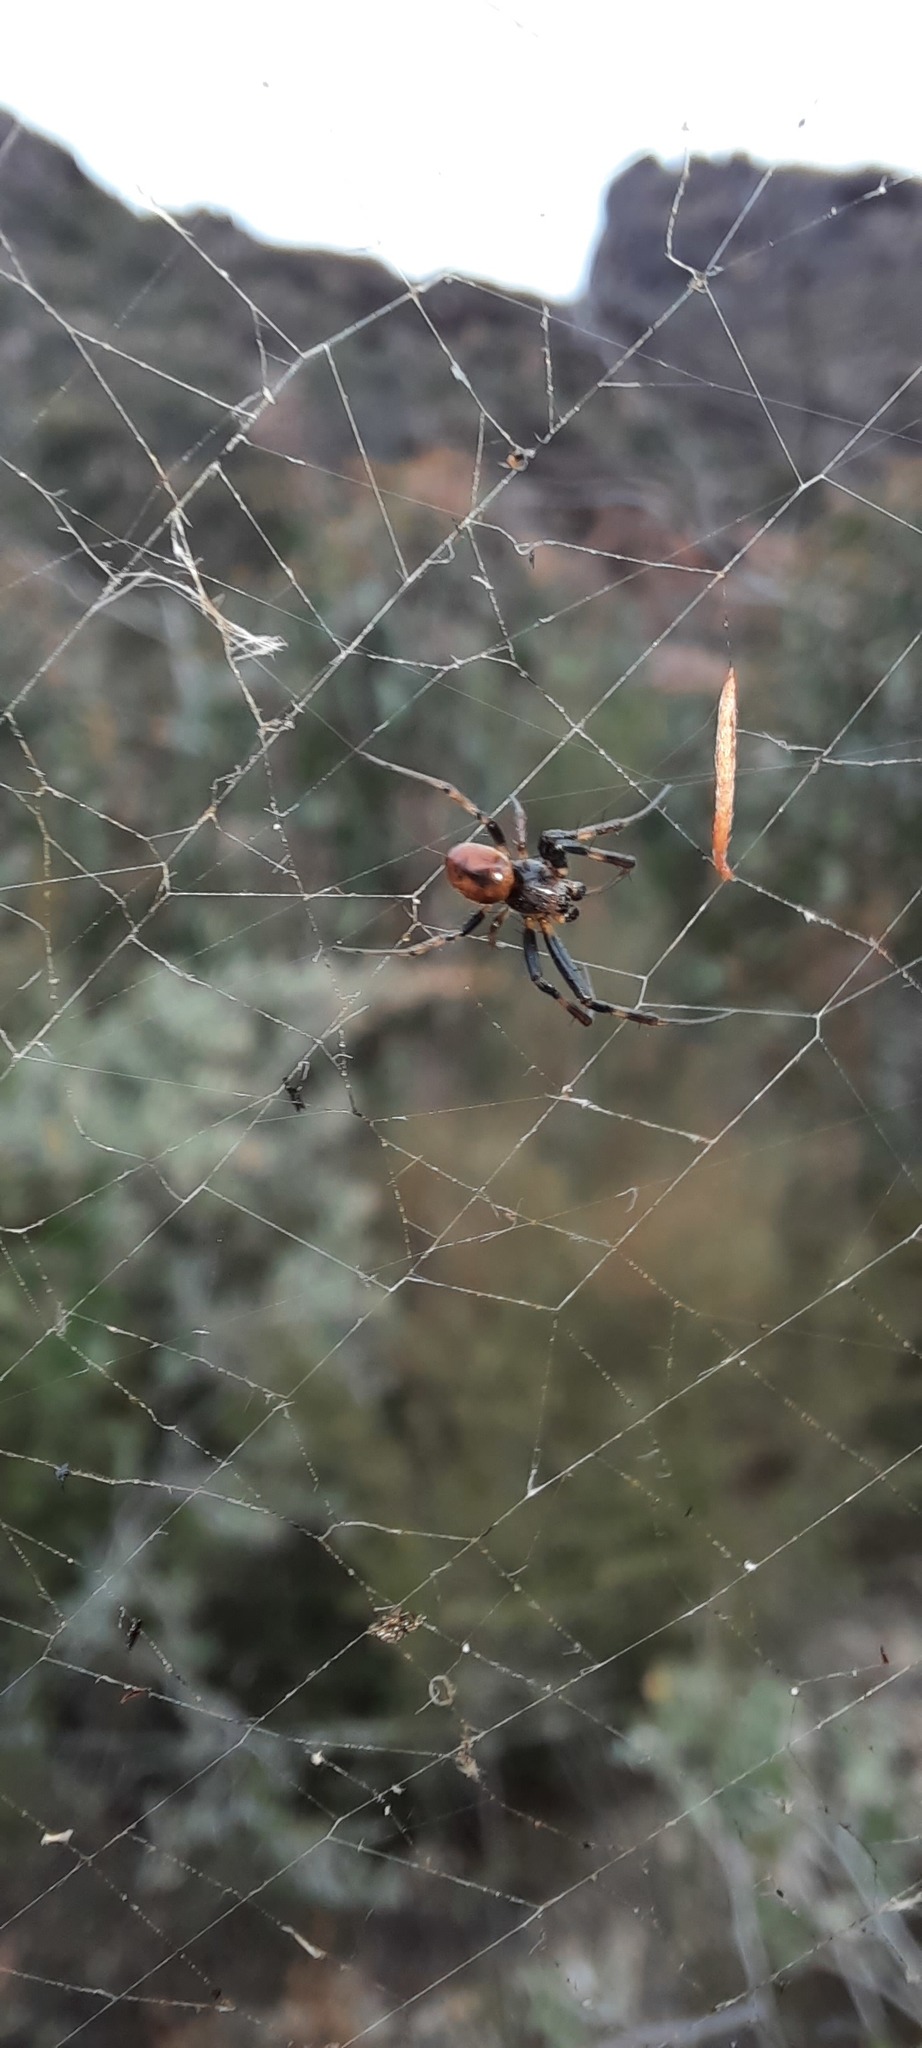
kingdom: Animalia
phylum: Arthropoda
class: Arachnida
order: Araneae
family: Araneidae
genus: Trichonephila
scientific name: Trichonephila edulis
